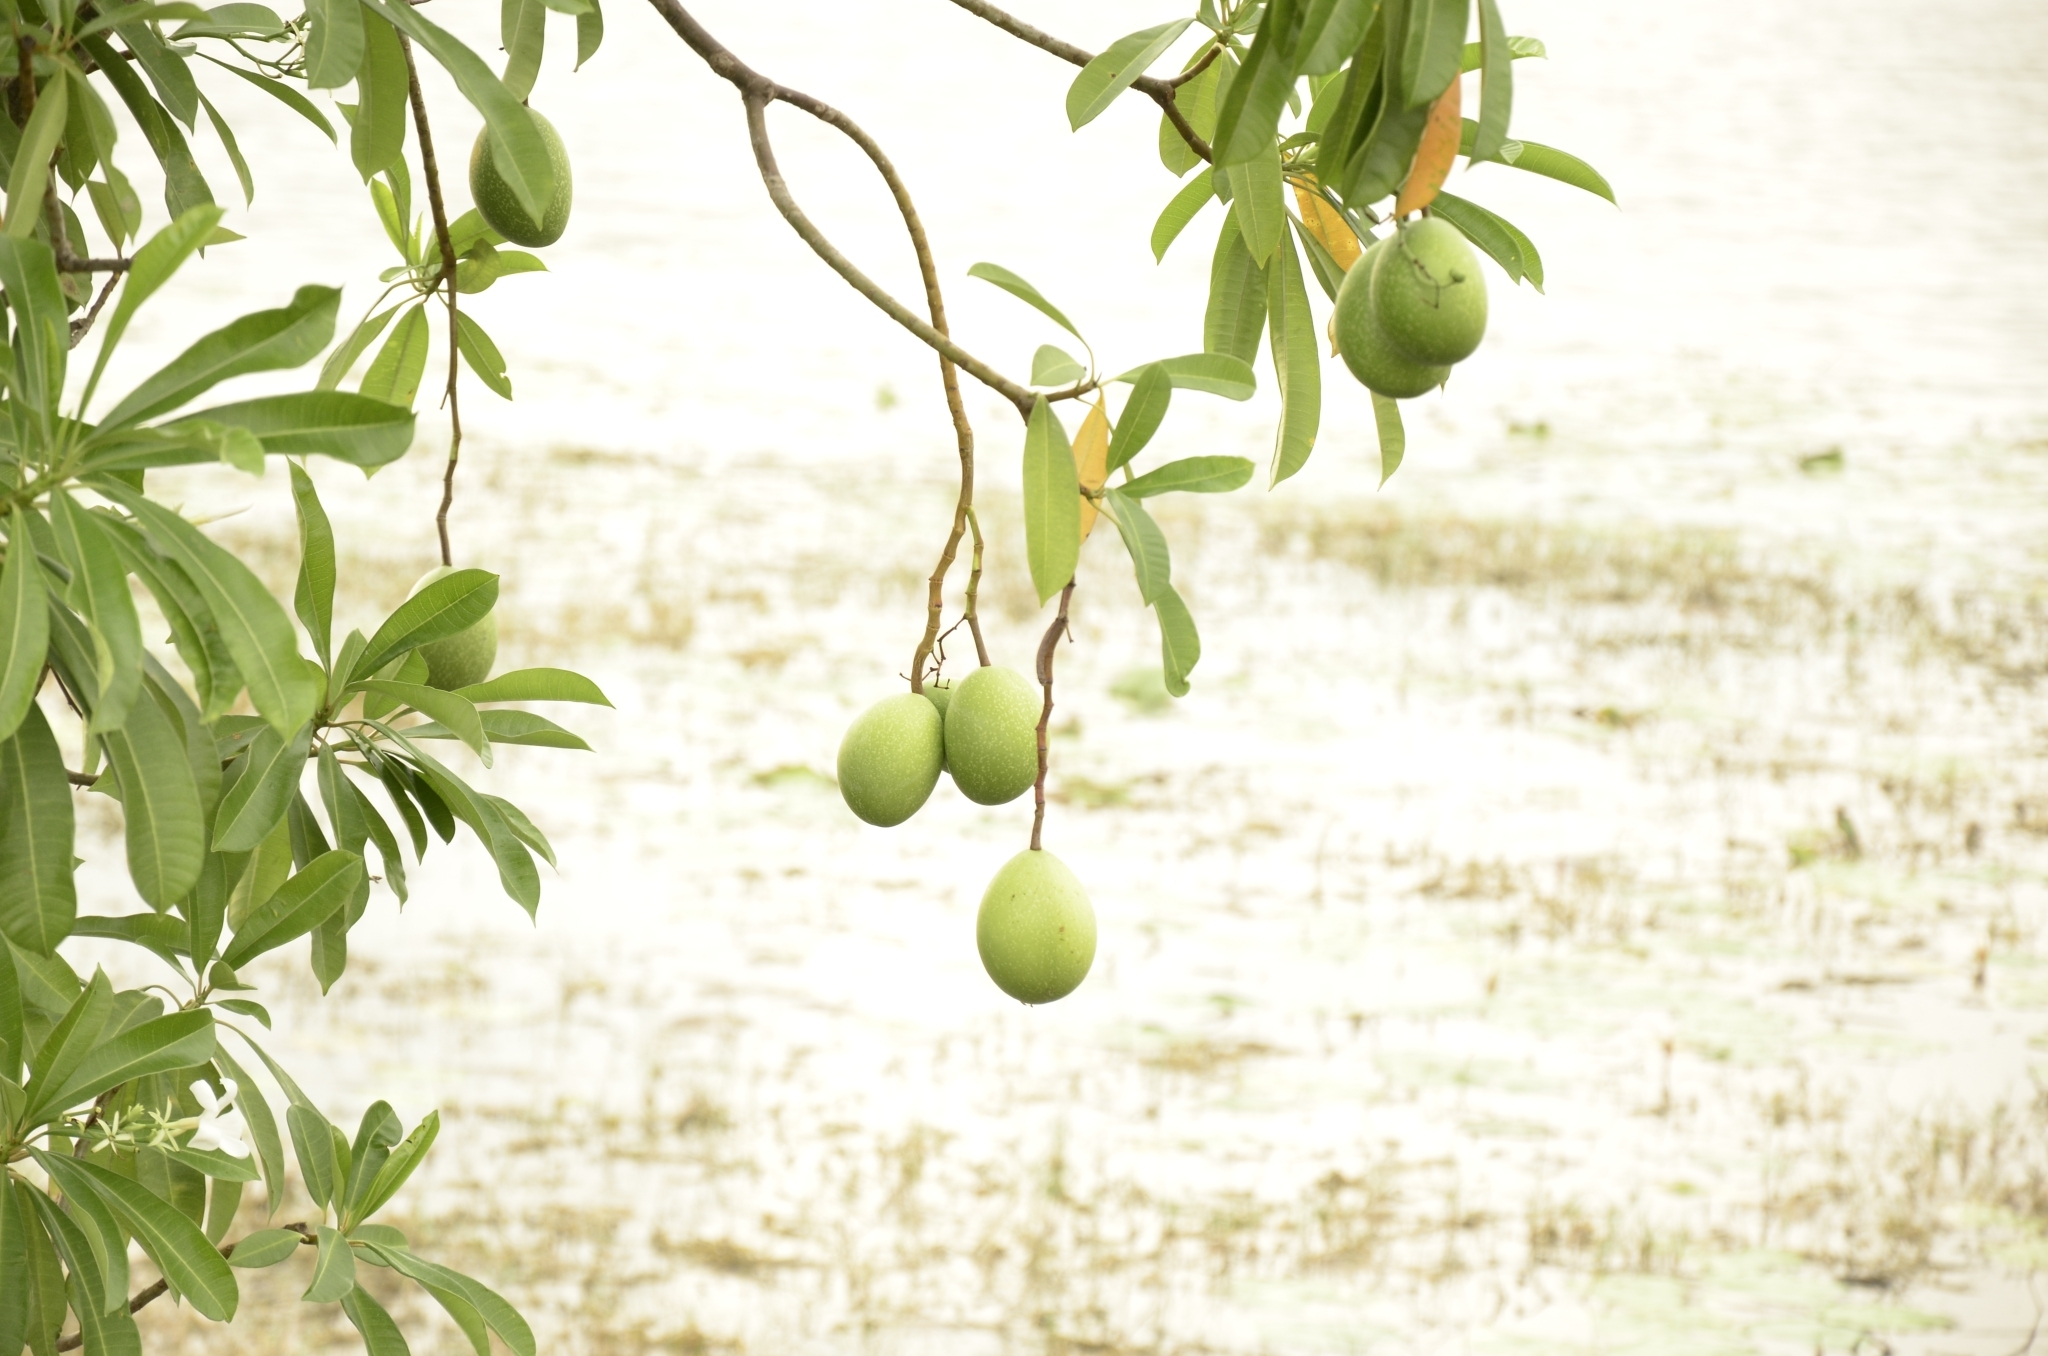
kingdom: Plantae
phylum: Tracheophyta
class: Magnoliopsida
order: Gentianales
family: Apocynaceae
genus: Cerbera
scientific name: Cerbera odollam
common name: Pong-pong
